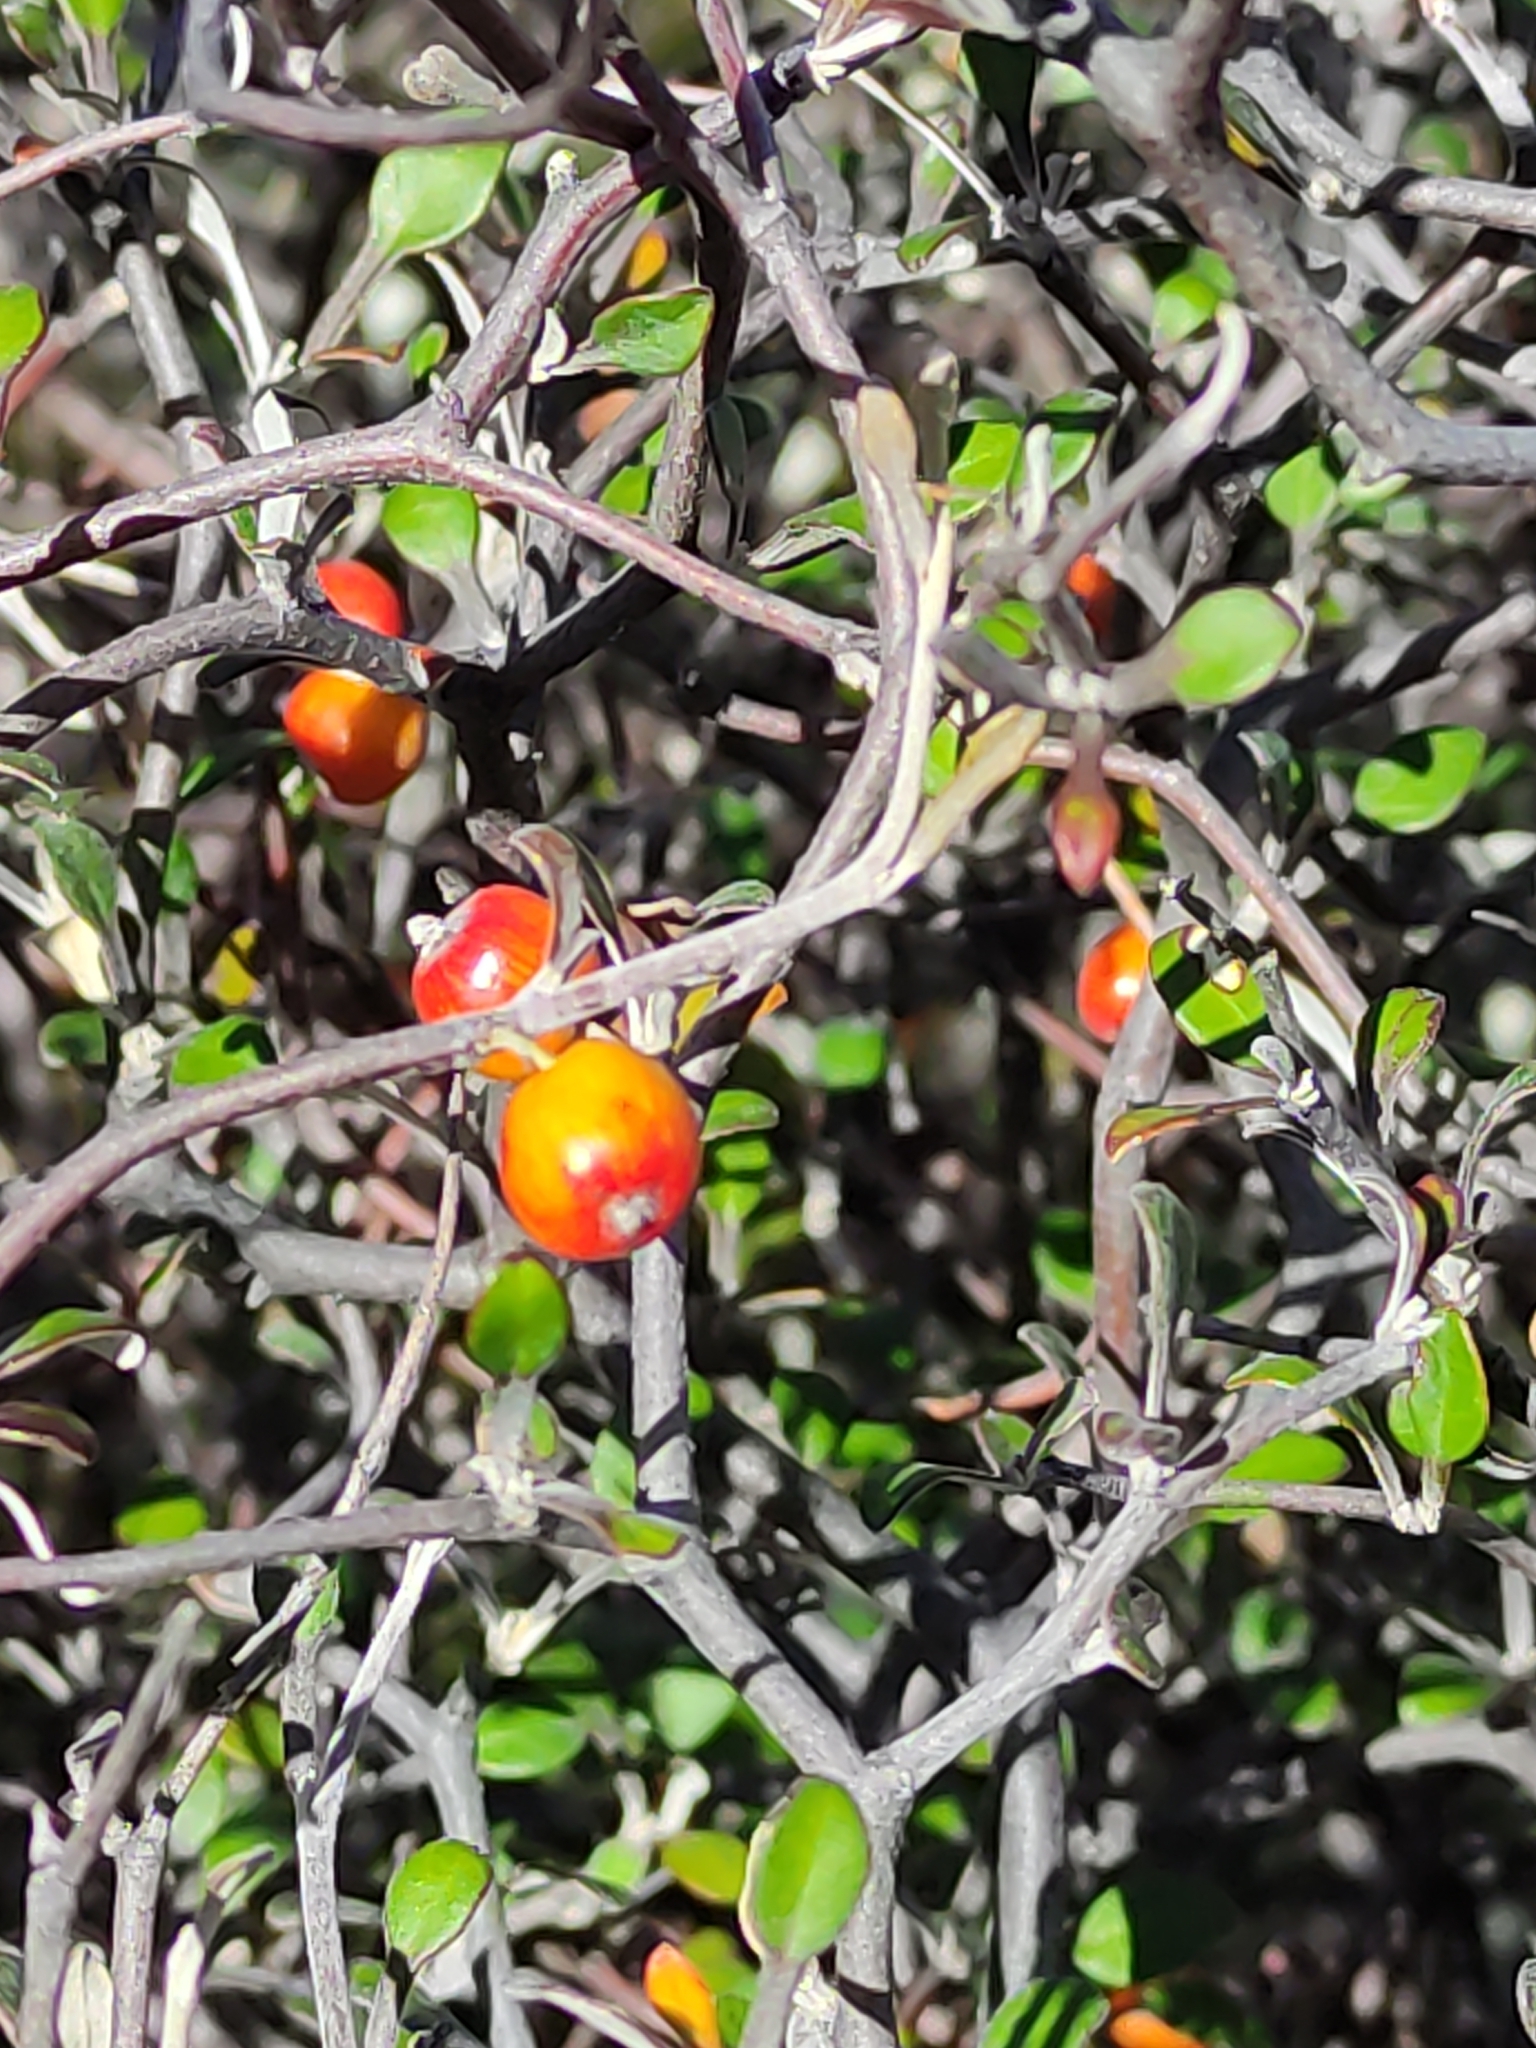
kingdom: Plantae
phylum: Tracheophyta
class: Magnoliopsida
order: Asterales
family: Argophyllaceae
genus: Corokia
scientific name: Corokia cotoneaster
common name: Wire nettingbush
